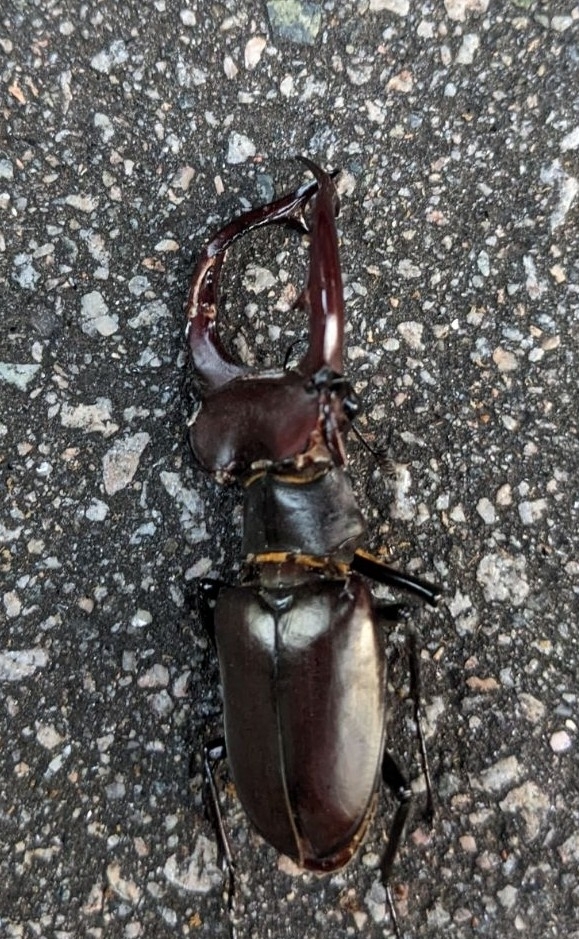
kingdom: Animalia
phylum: Arthropoda
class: Insecta
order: Coleoptera
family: Lucanidae
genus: Lucanus
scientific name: Lucanus elaphus
